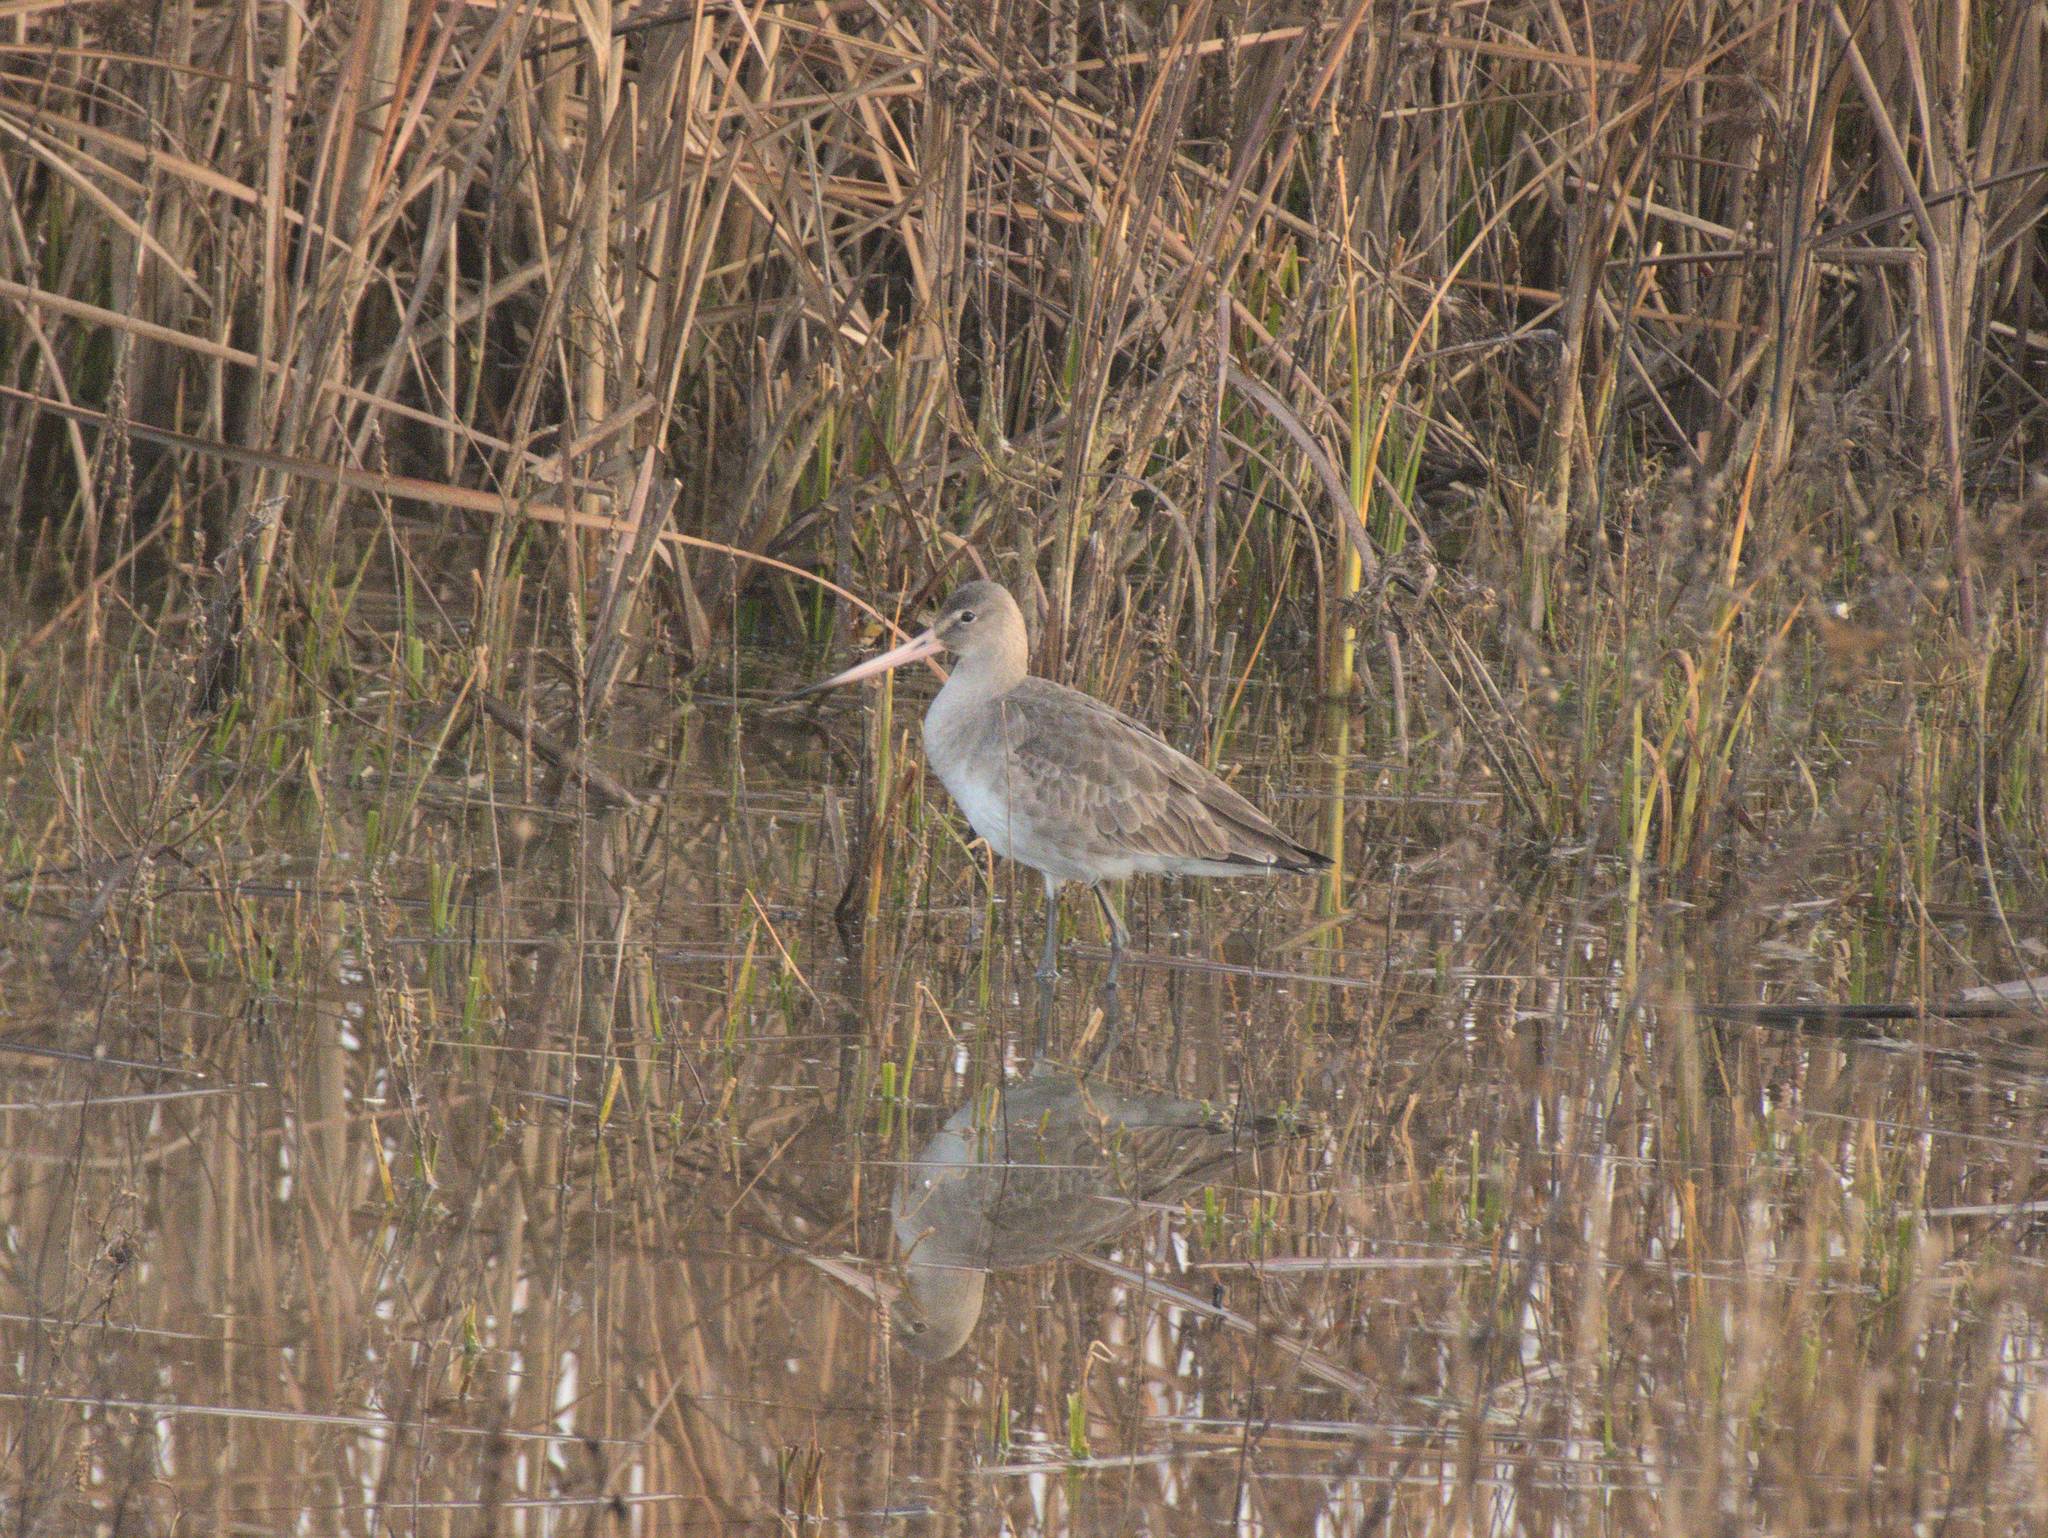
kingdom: Animalia
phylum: Chordata
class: Aves
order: Charadriiformes
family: Scolopacidae
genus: Limosa
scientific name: Limosa limosa
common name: Black-tailed godwit
